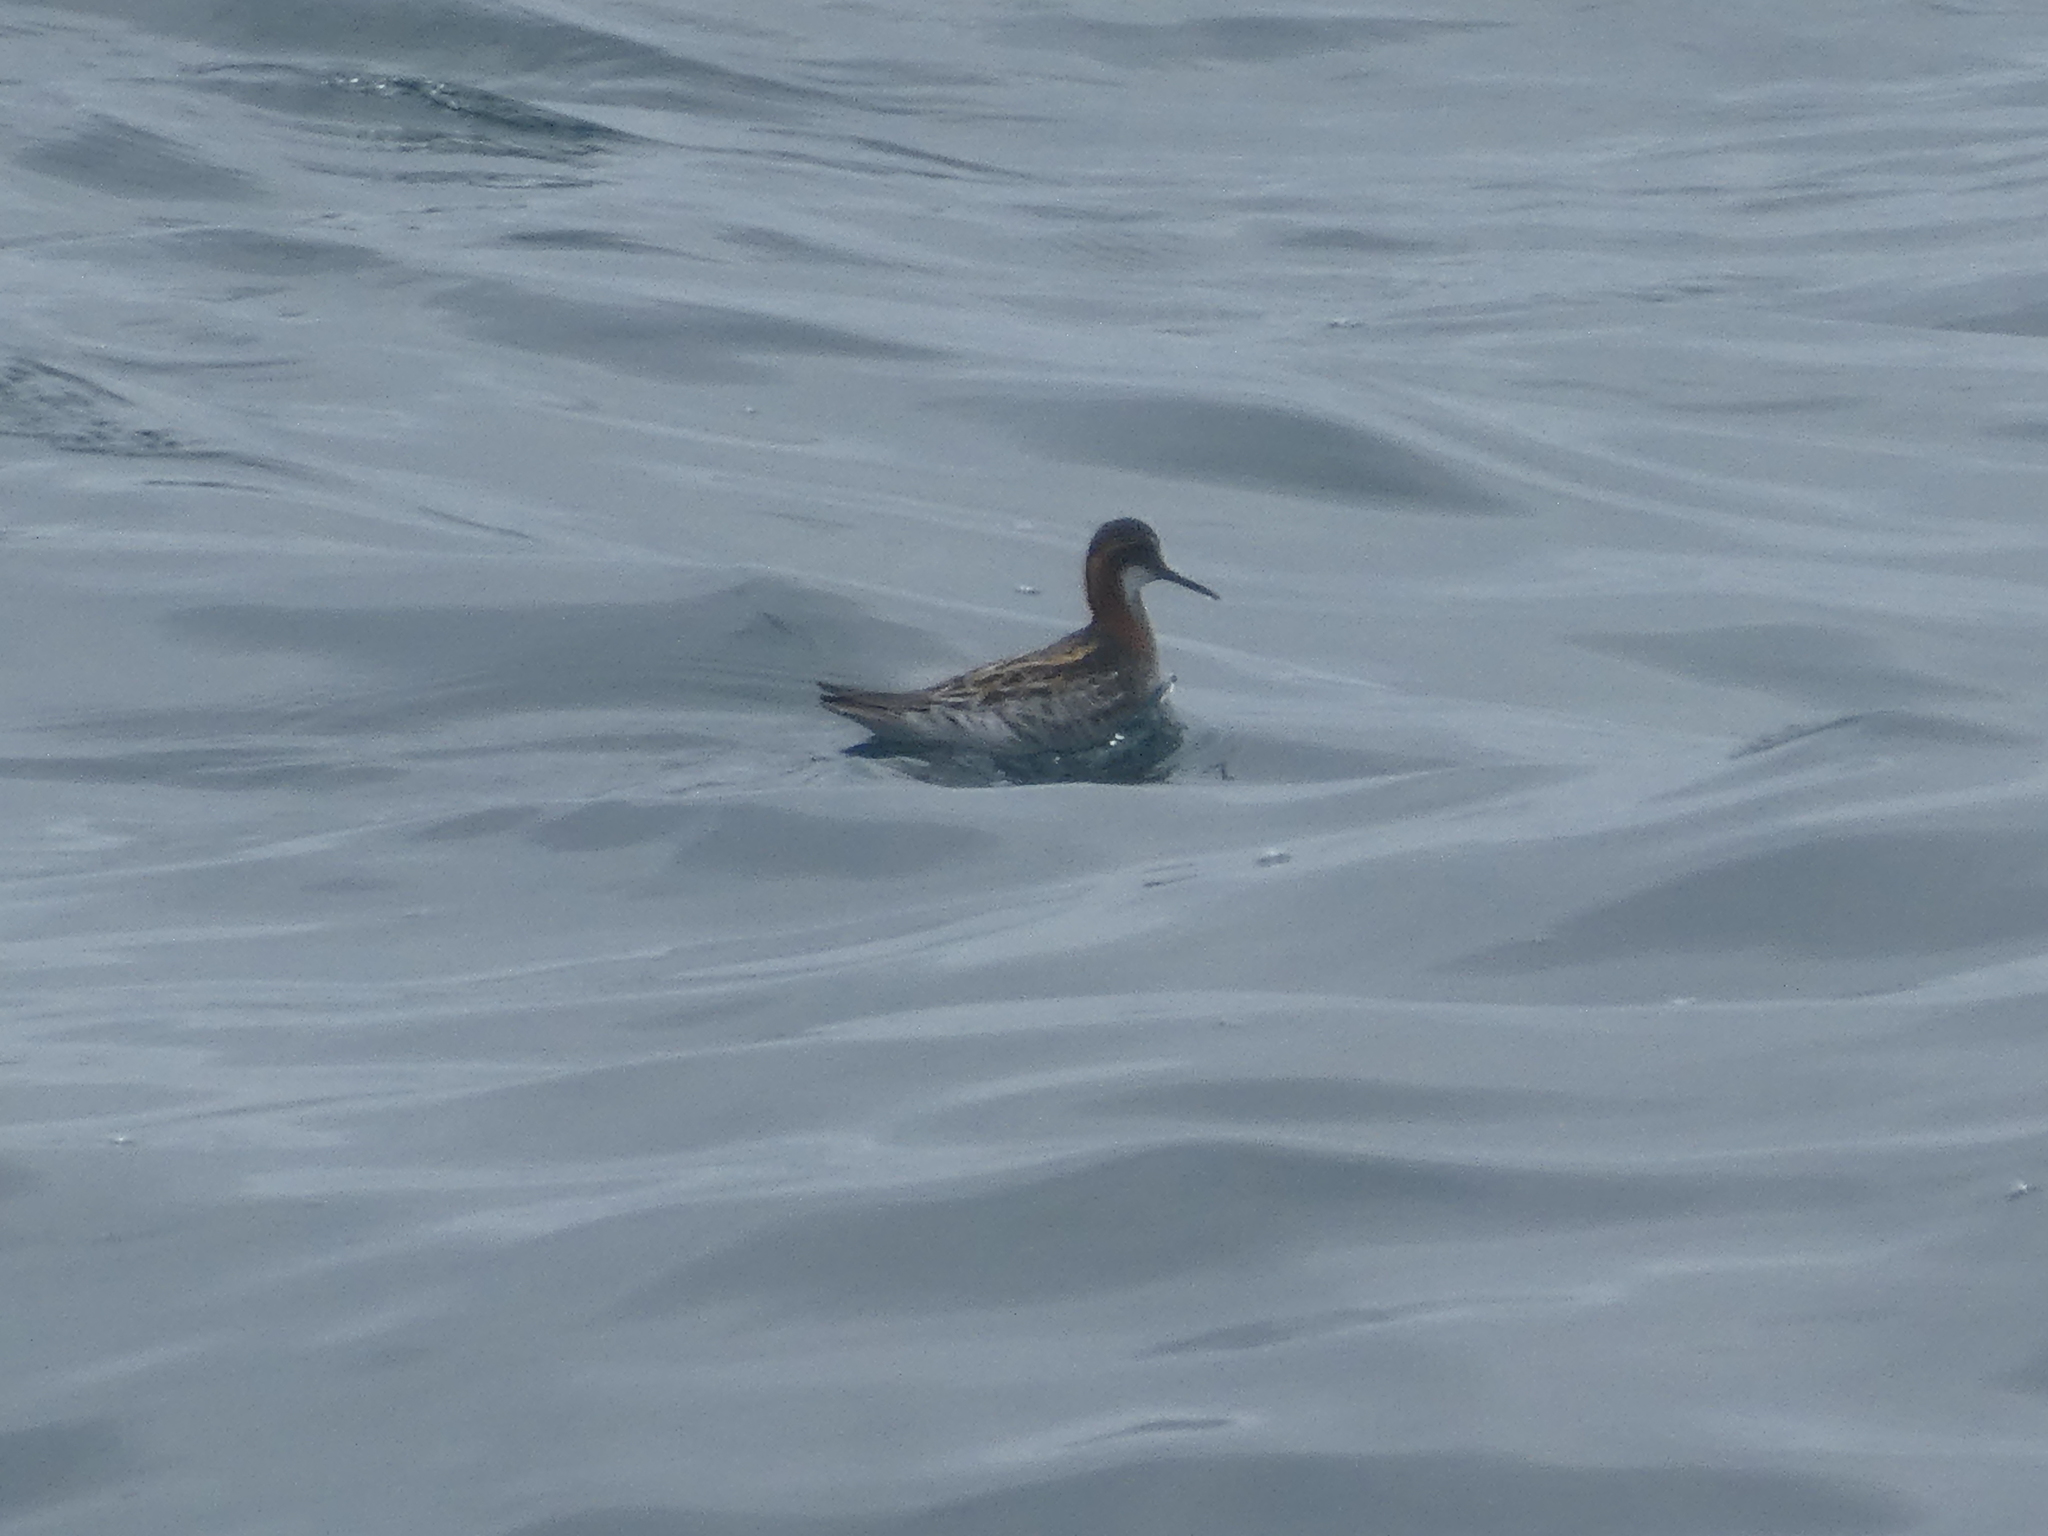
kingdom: Animalia
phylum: Chordata
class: Aves
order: Charadriiformes
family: Scolopacidae
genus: Phalaropus
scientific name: Phalaropus lobatus
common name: Red-necked phalarope
